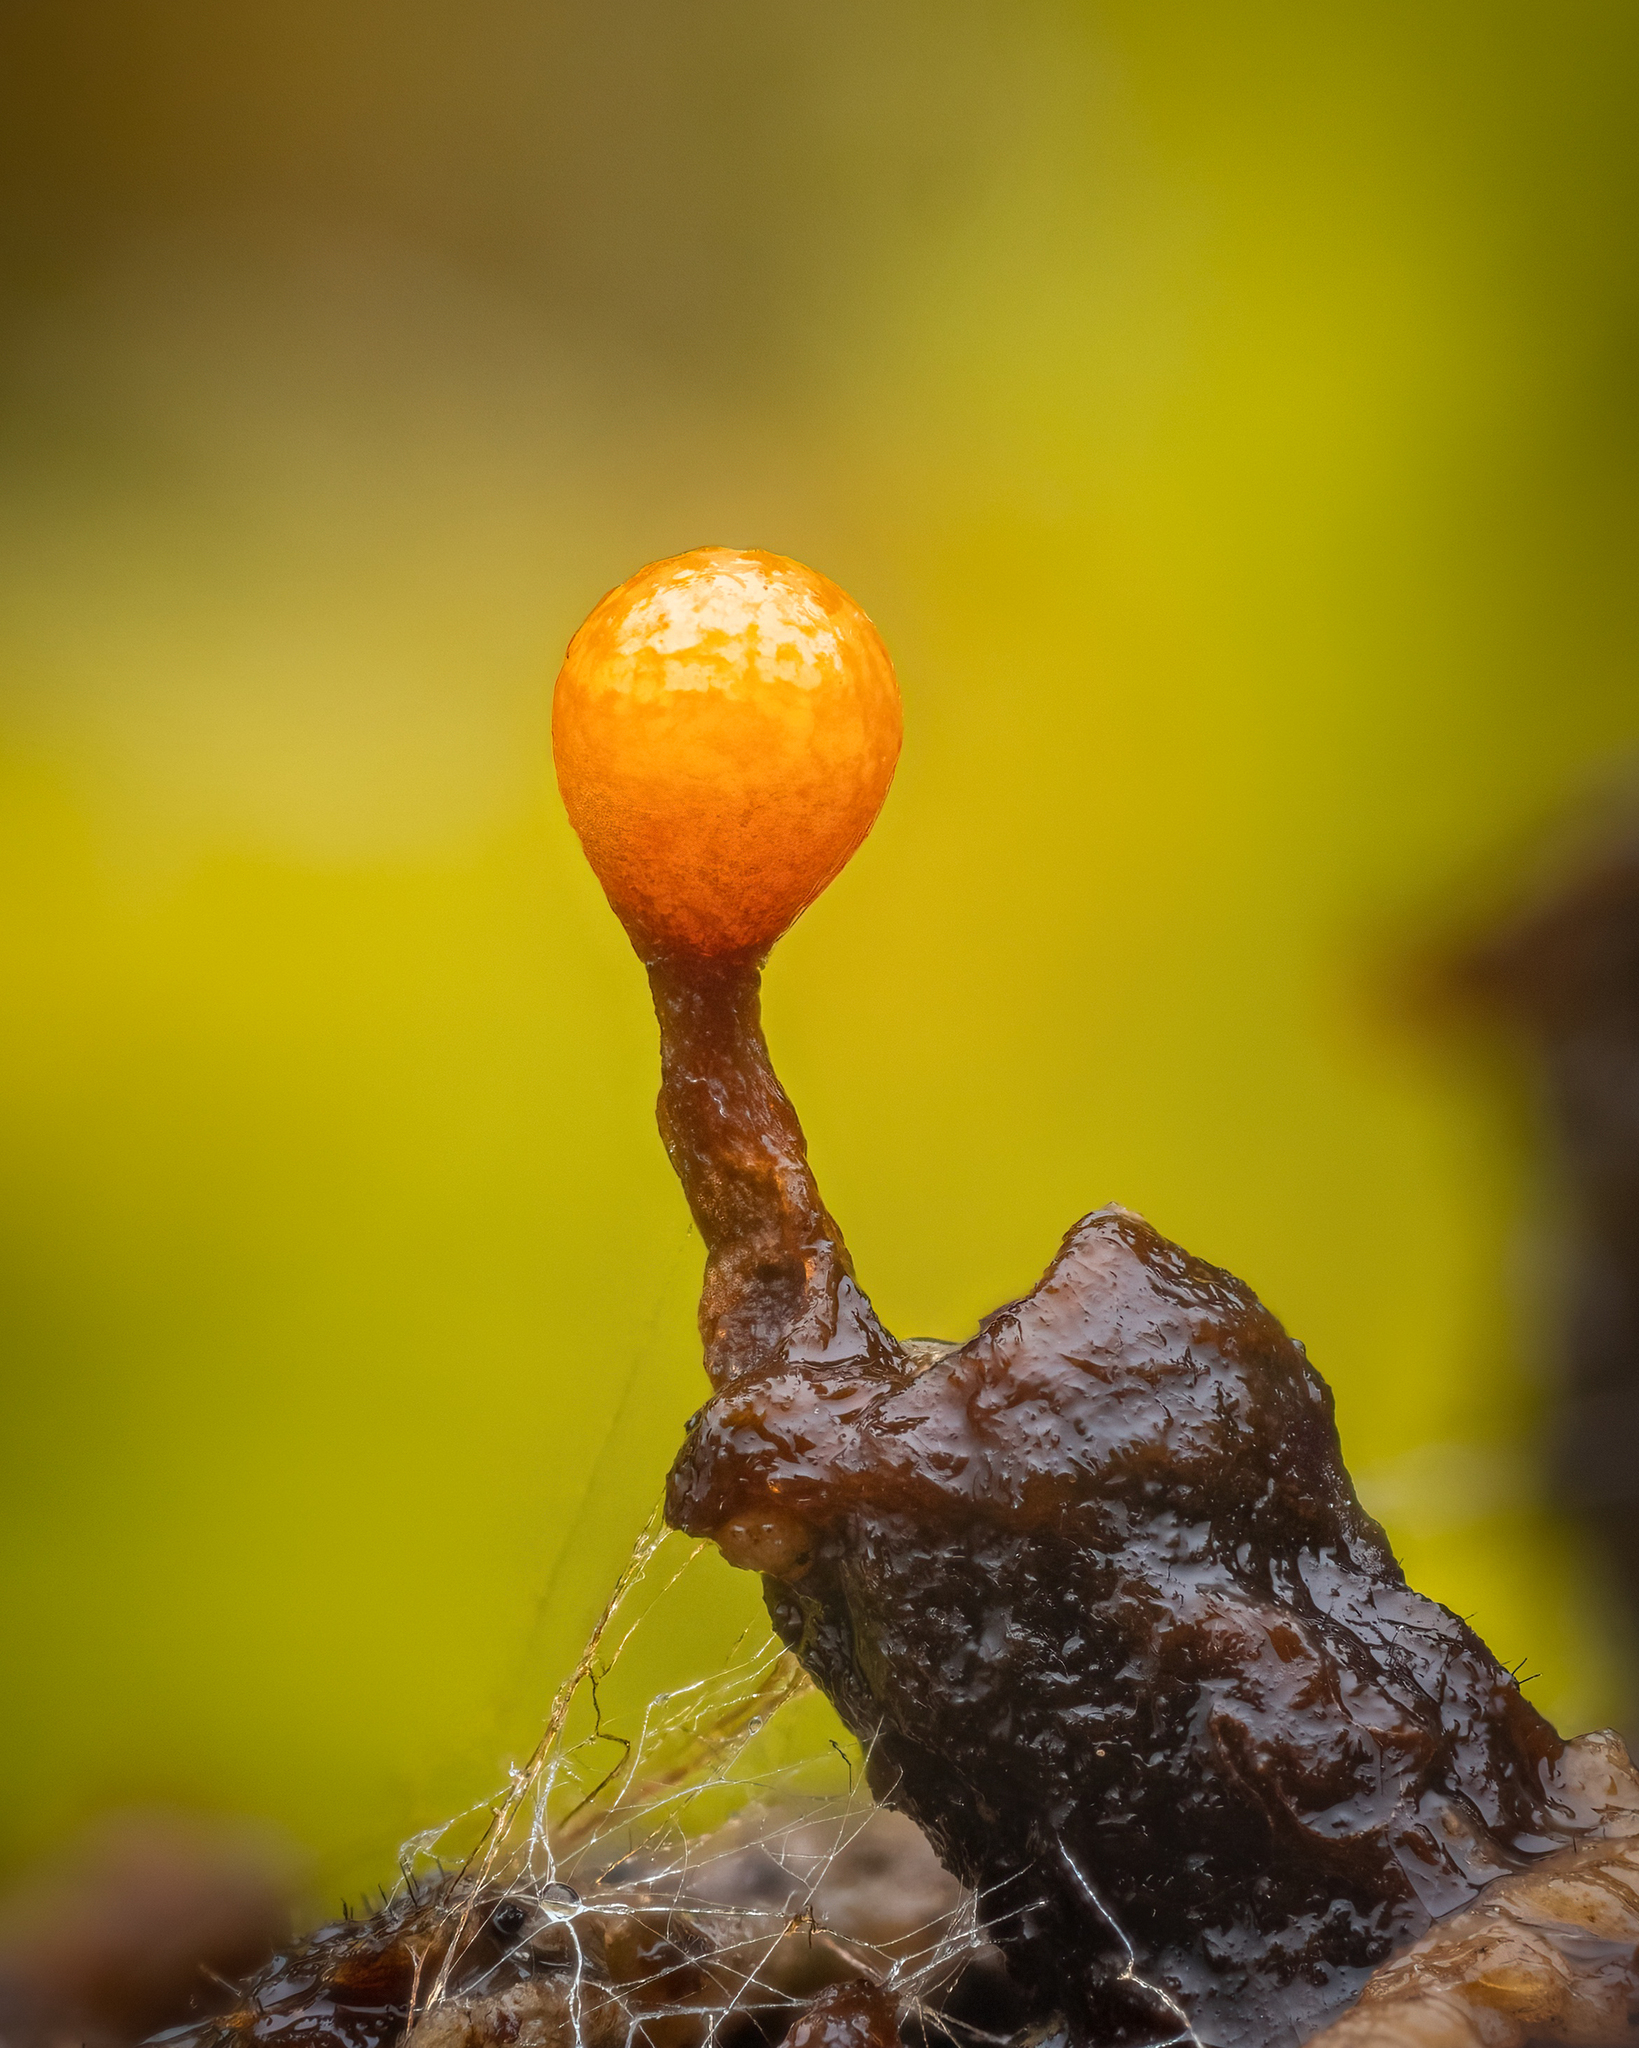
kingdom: Protozoa
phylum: Mycetozoa
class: Myxomycetes
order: Trichiales
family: Trichiaceae
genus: Trichia
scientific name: Trichia ambigua
